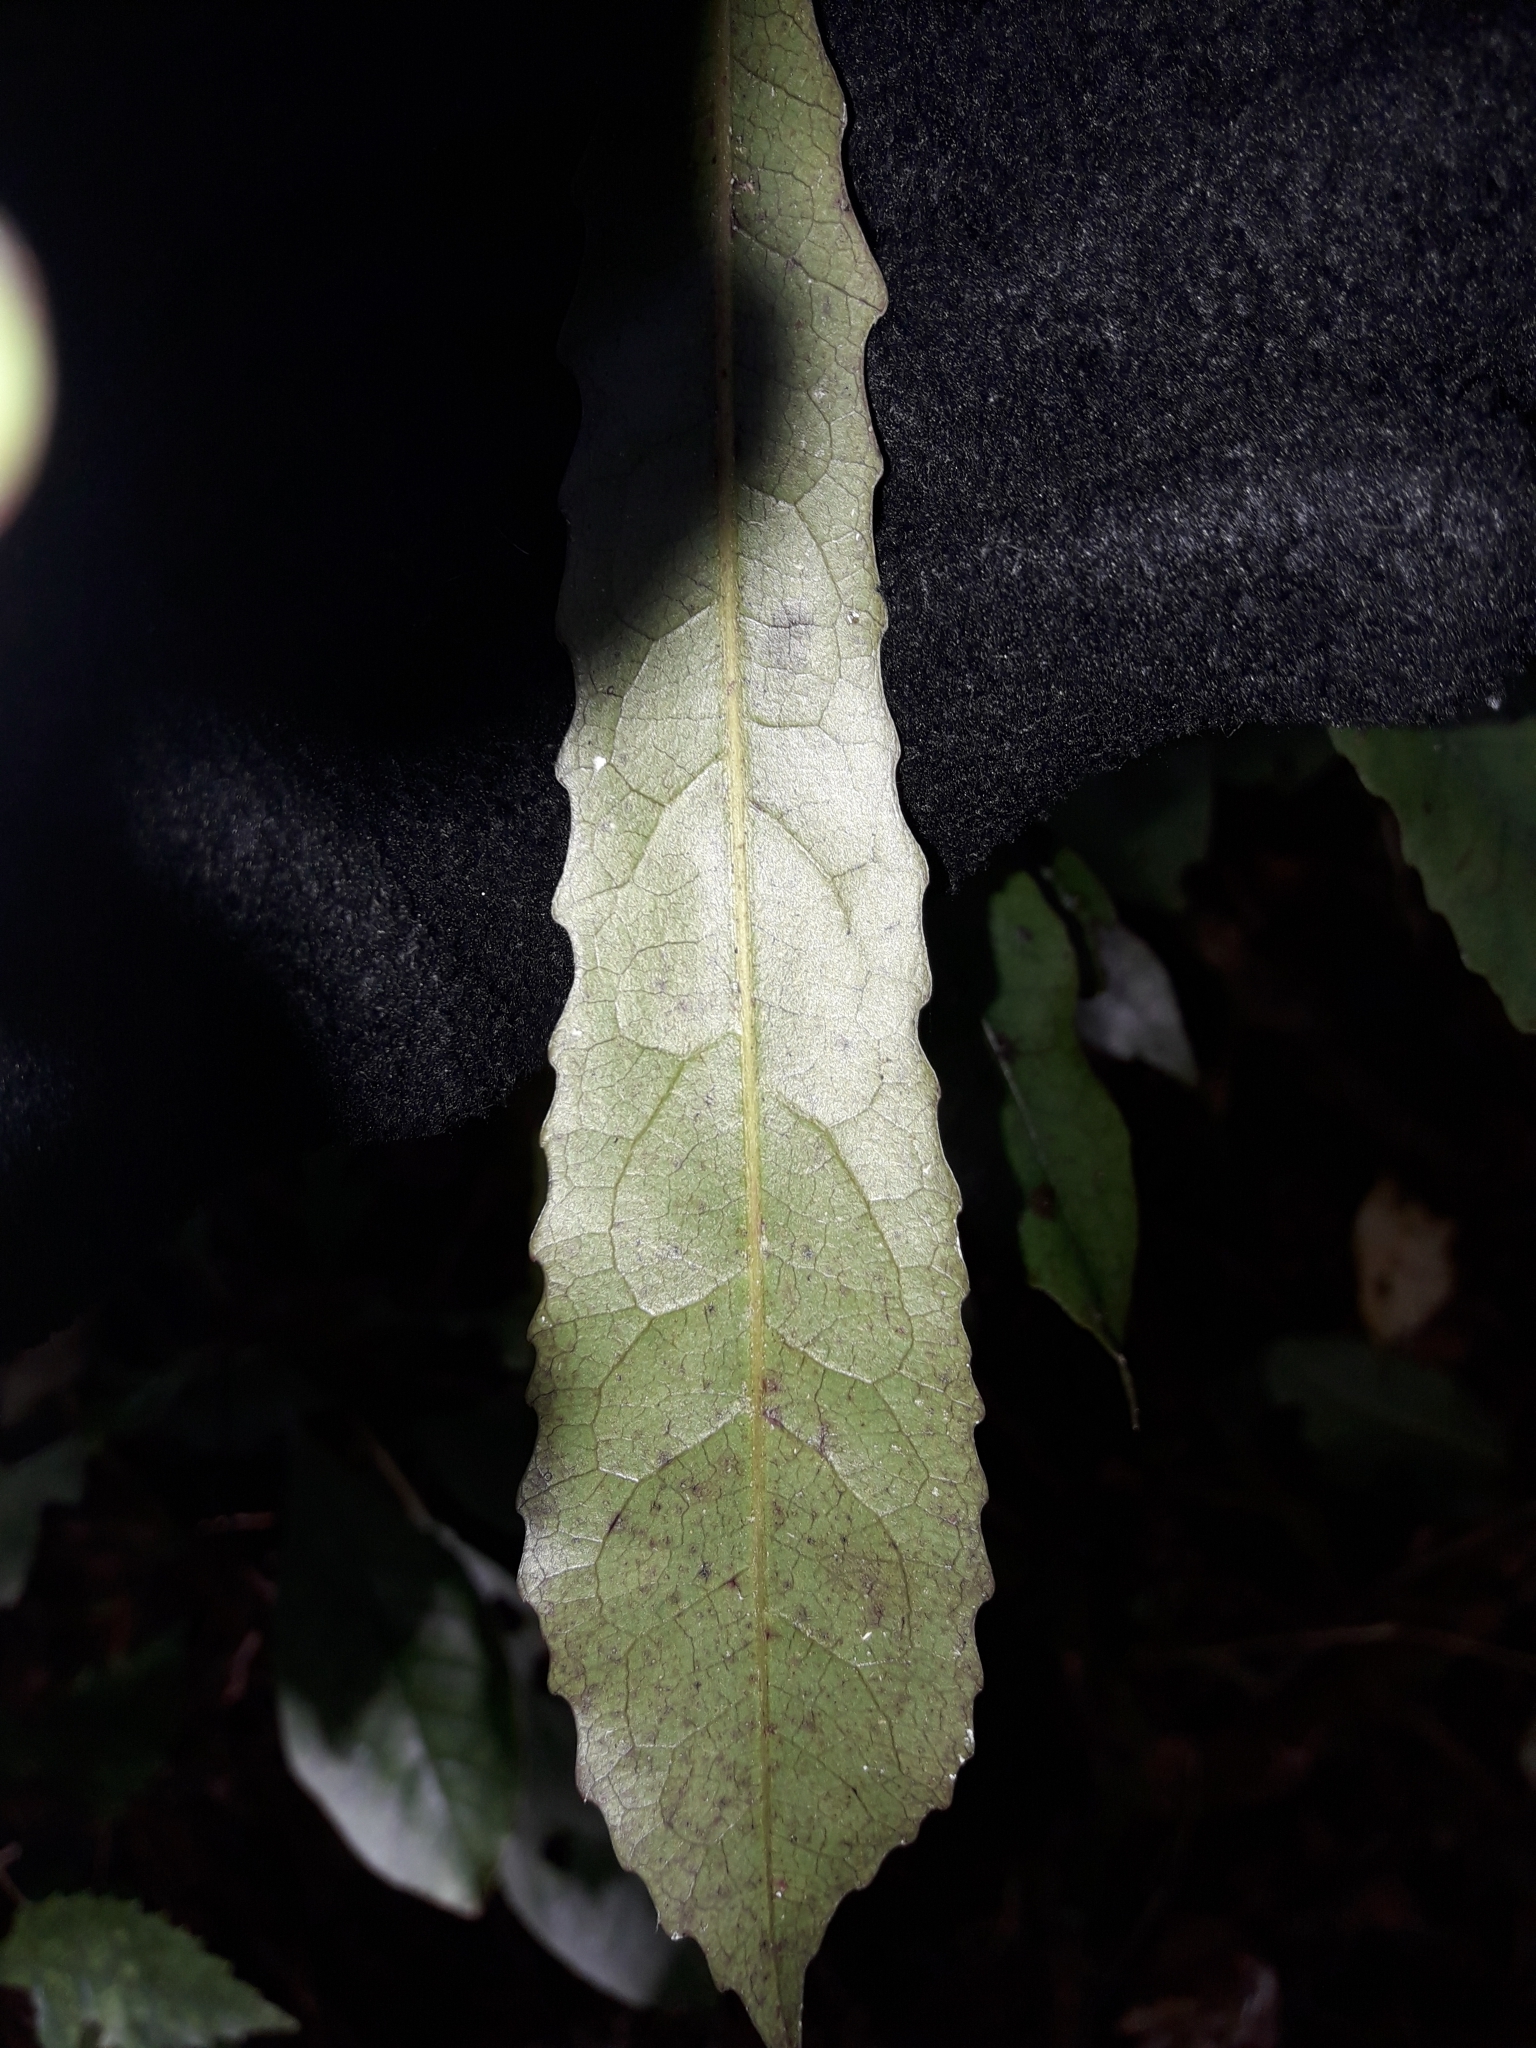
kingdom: Plantae
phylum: Tracheophyta
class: Magnoliopsida
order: Oxalidales
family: Elaeocarpaceae
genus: Elaeocarpus
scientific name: Elaeocarpus dentatus
